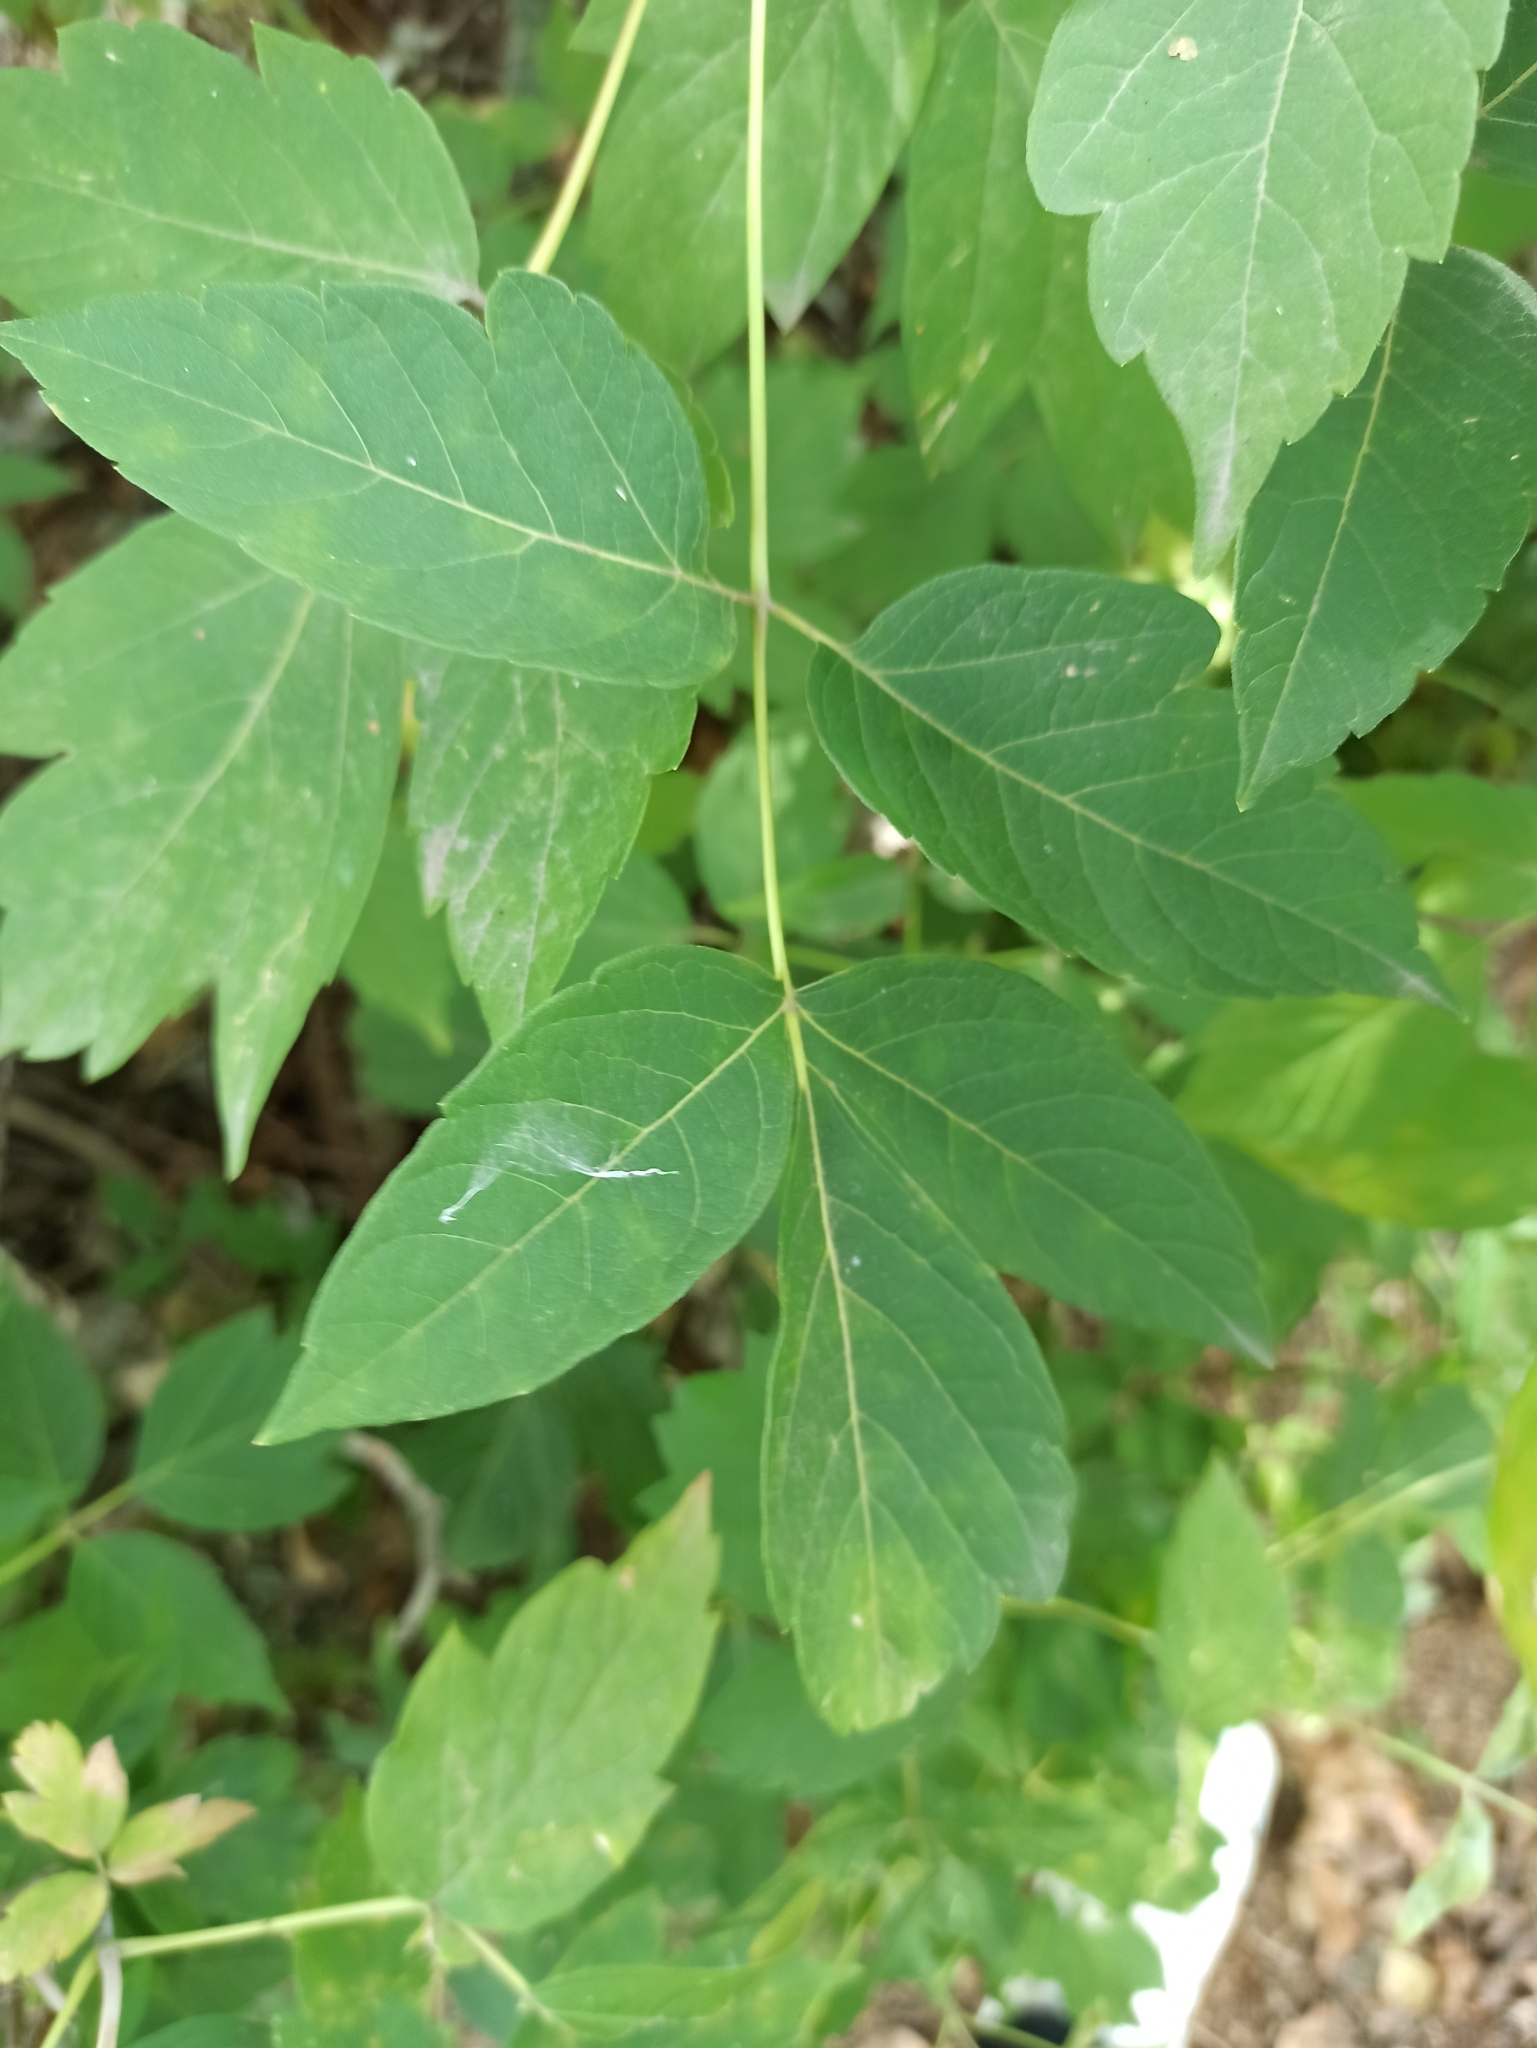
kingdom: Plantae
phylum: Tracheophyta
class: Magnoliopsida
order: Sapindales
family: Sapindaceae
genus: Acer
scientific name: Acer negundo
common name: Ashleaf maple
